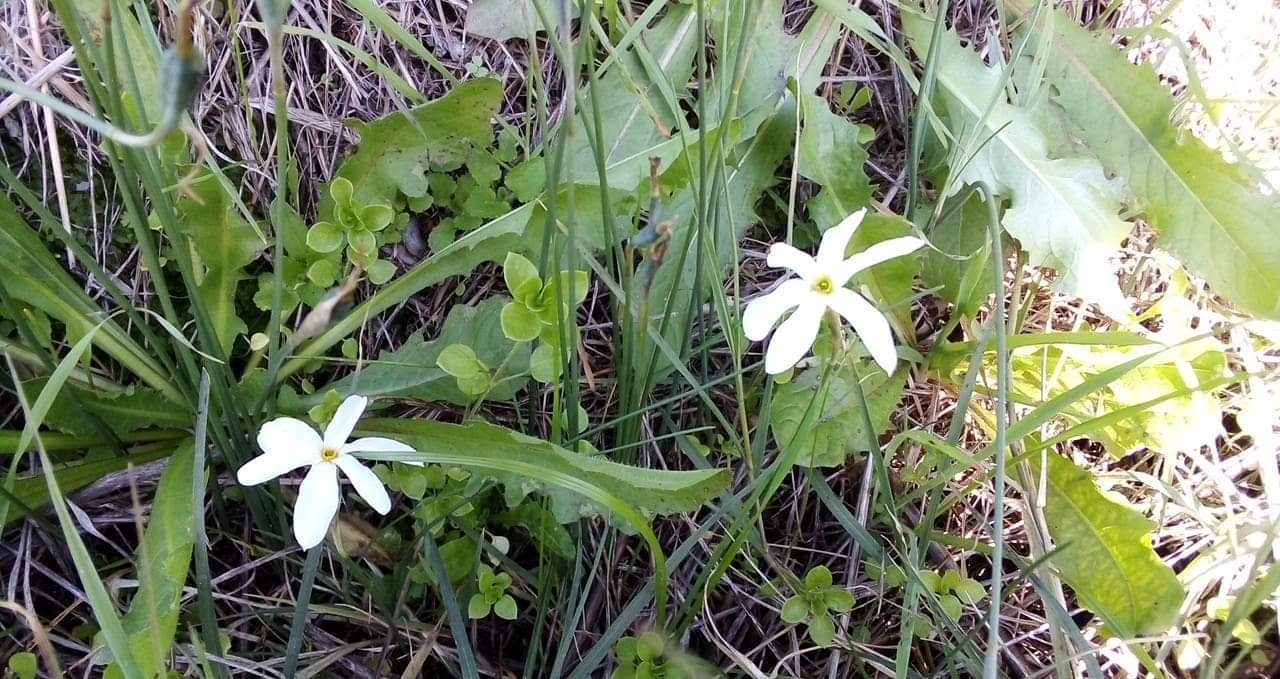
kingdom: Plantae
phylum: Tracheophyta
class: Liliopsida
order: Asparagales
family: Amaryllidaceae
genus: Narcissus
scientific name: Narcissus serotinus
